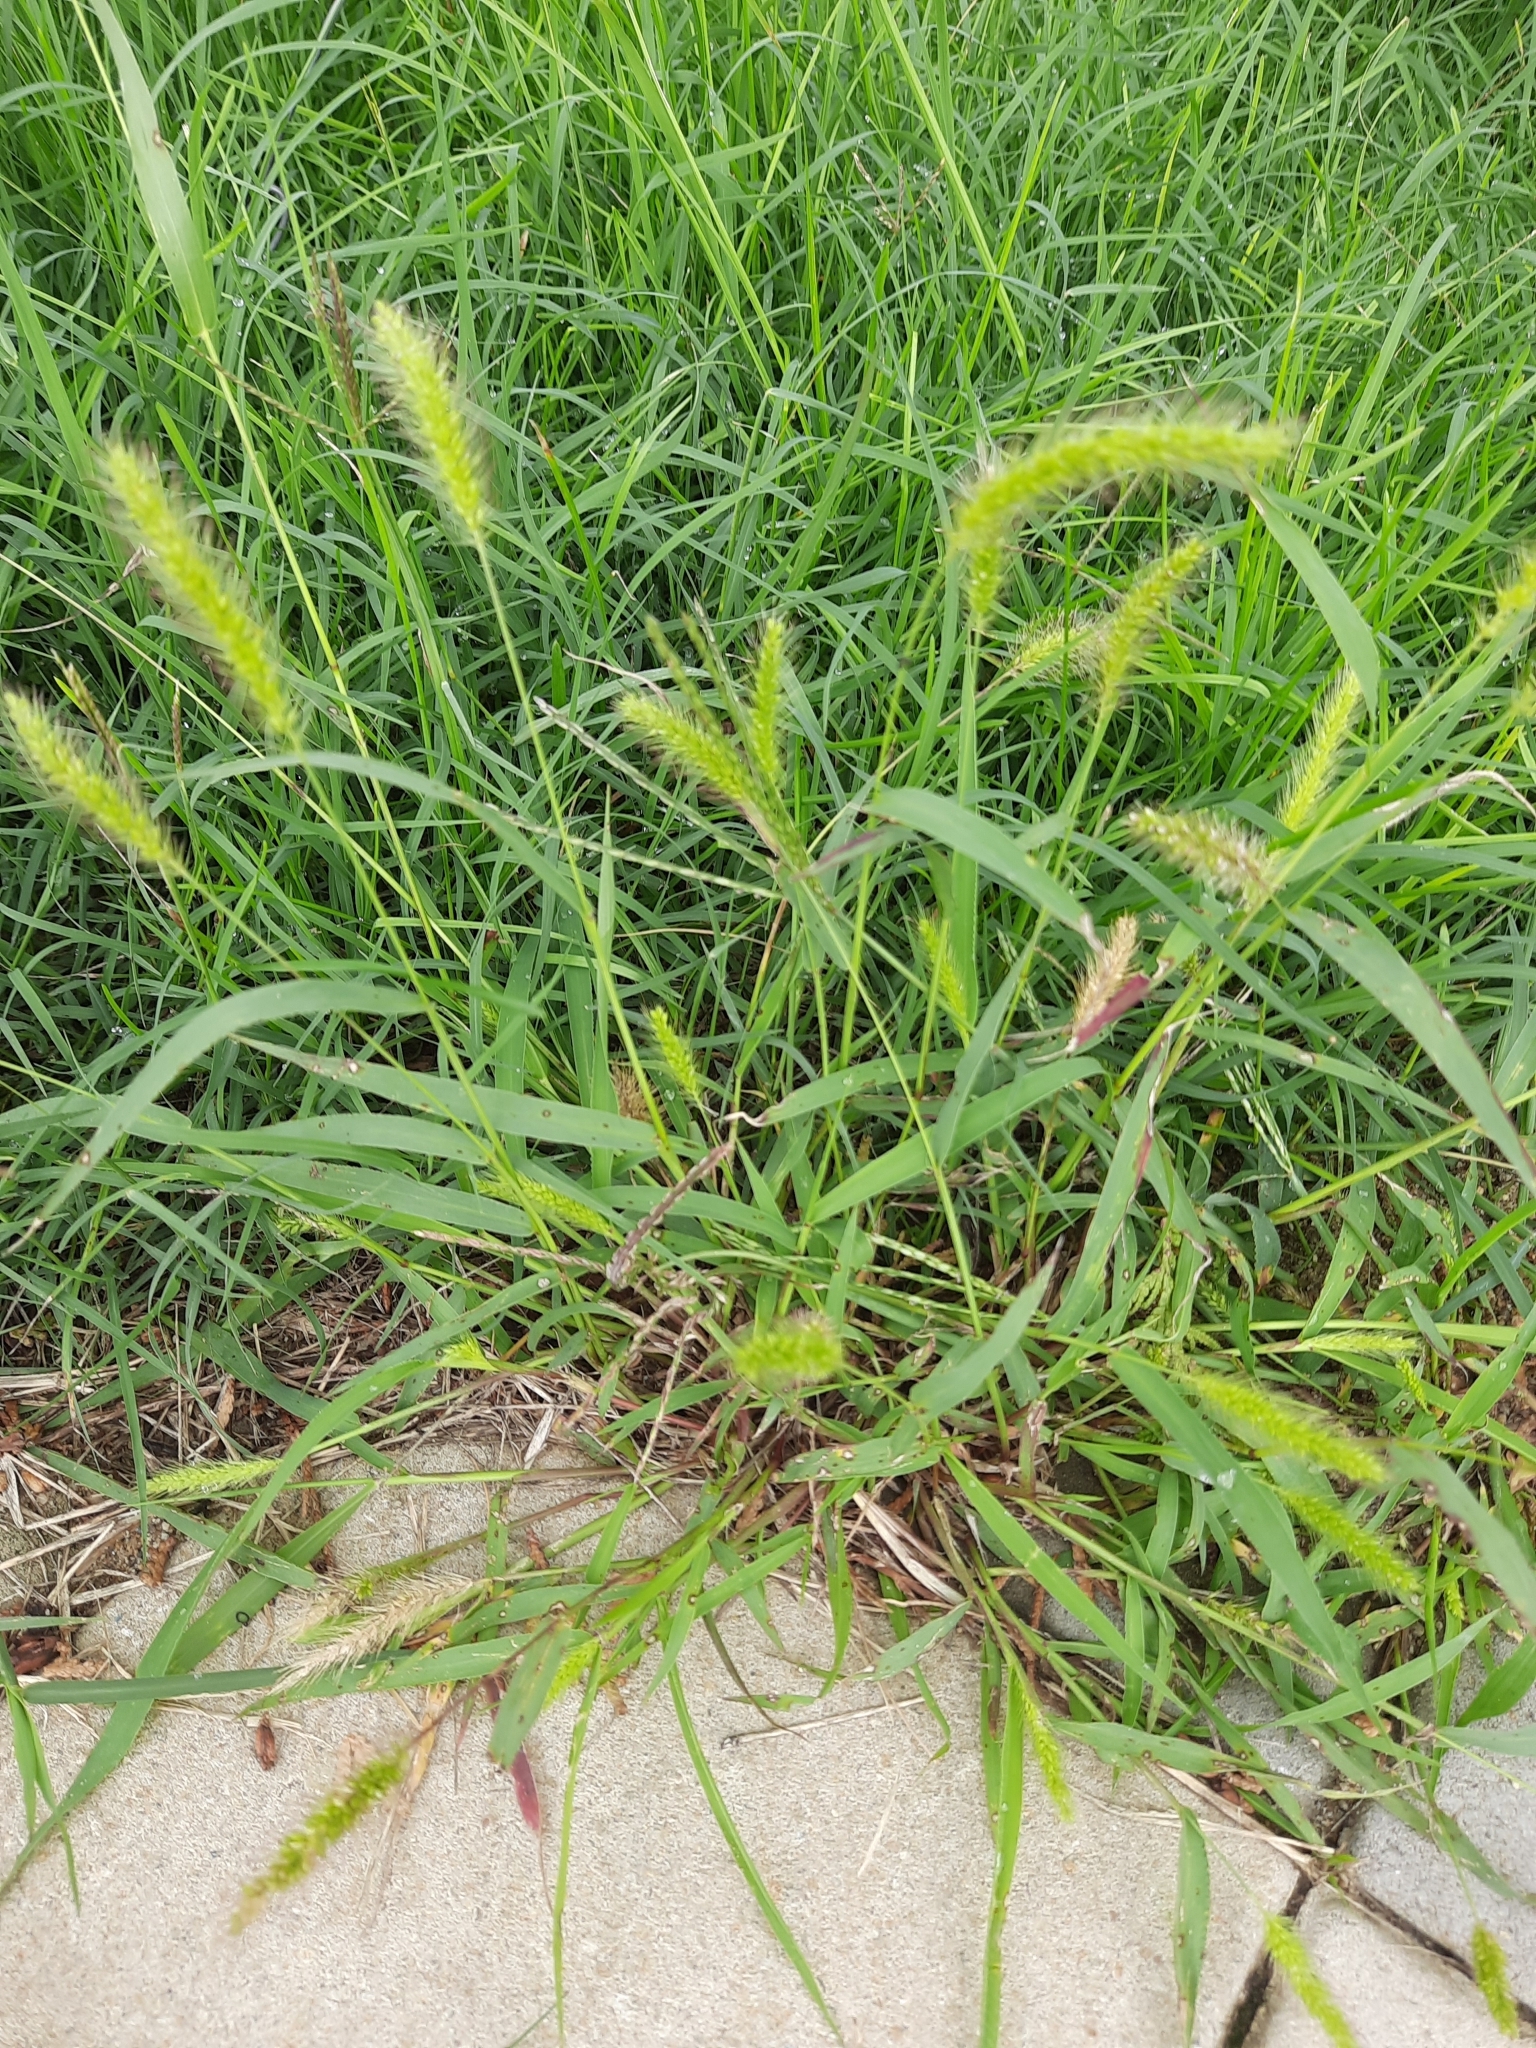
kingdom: Plantae
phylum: Tracheophyta
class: Liliopsida
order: Poales
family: Poaceae
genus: Setaria
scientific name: Setaria viridis
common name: Green bristlegrass
